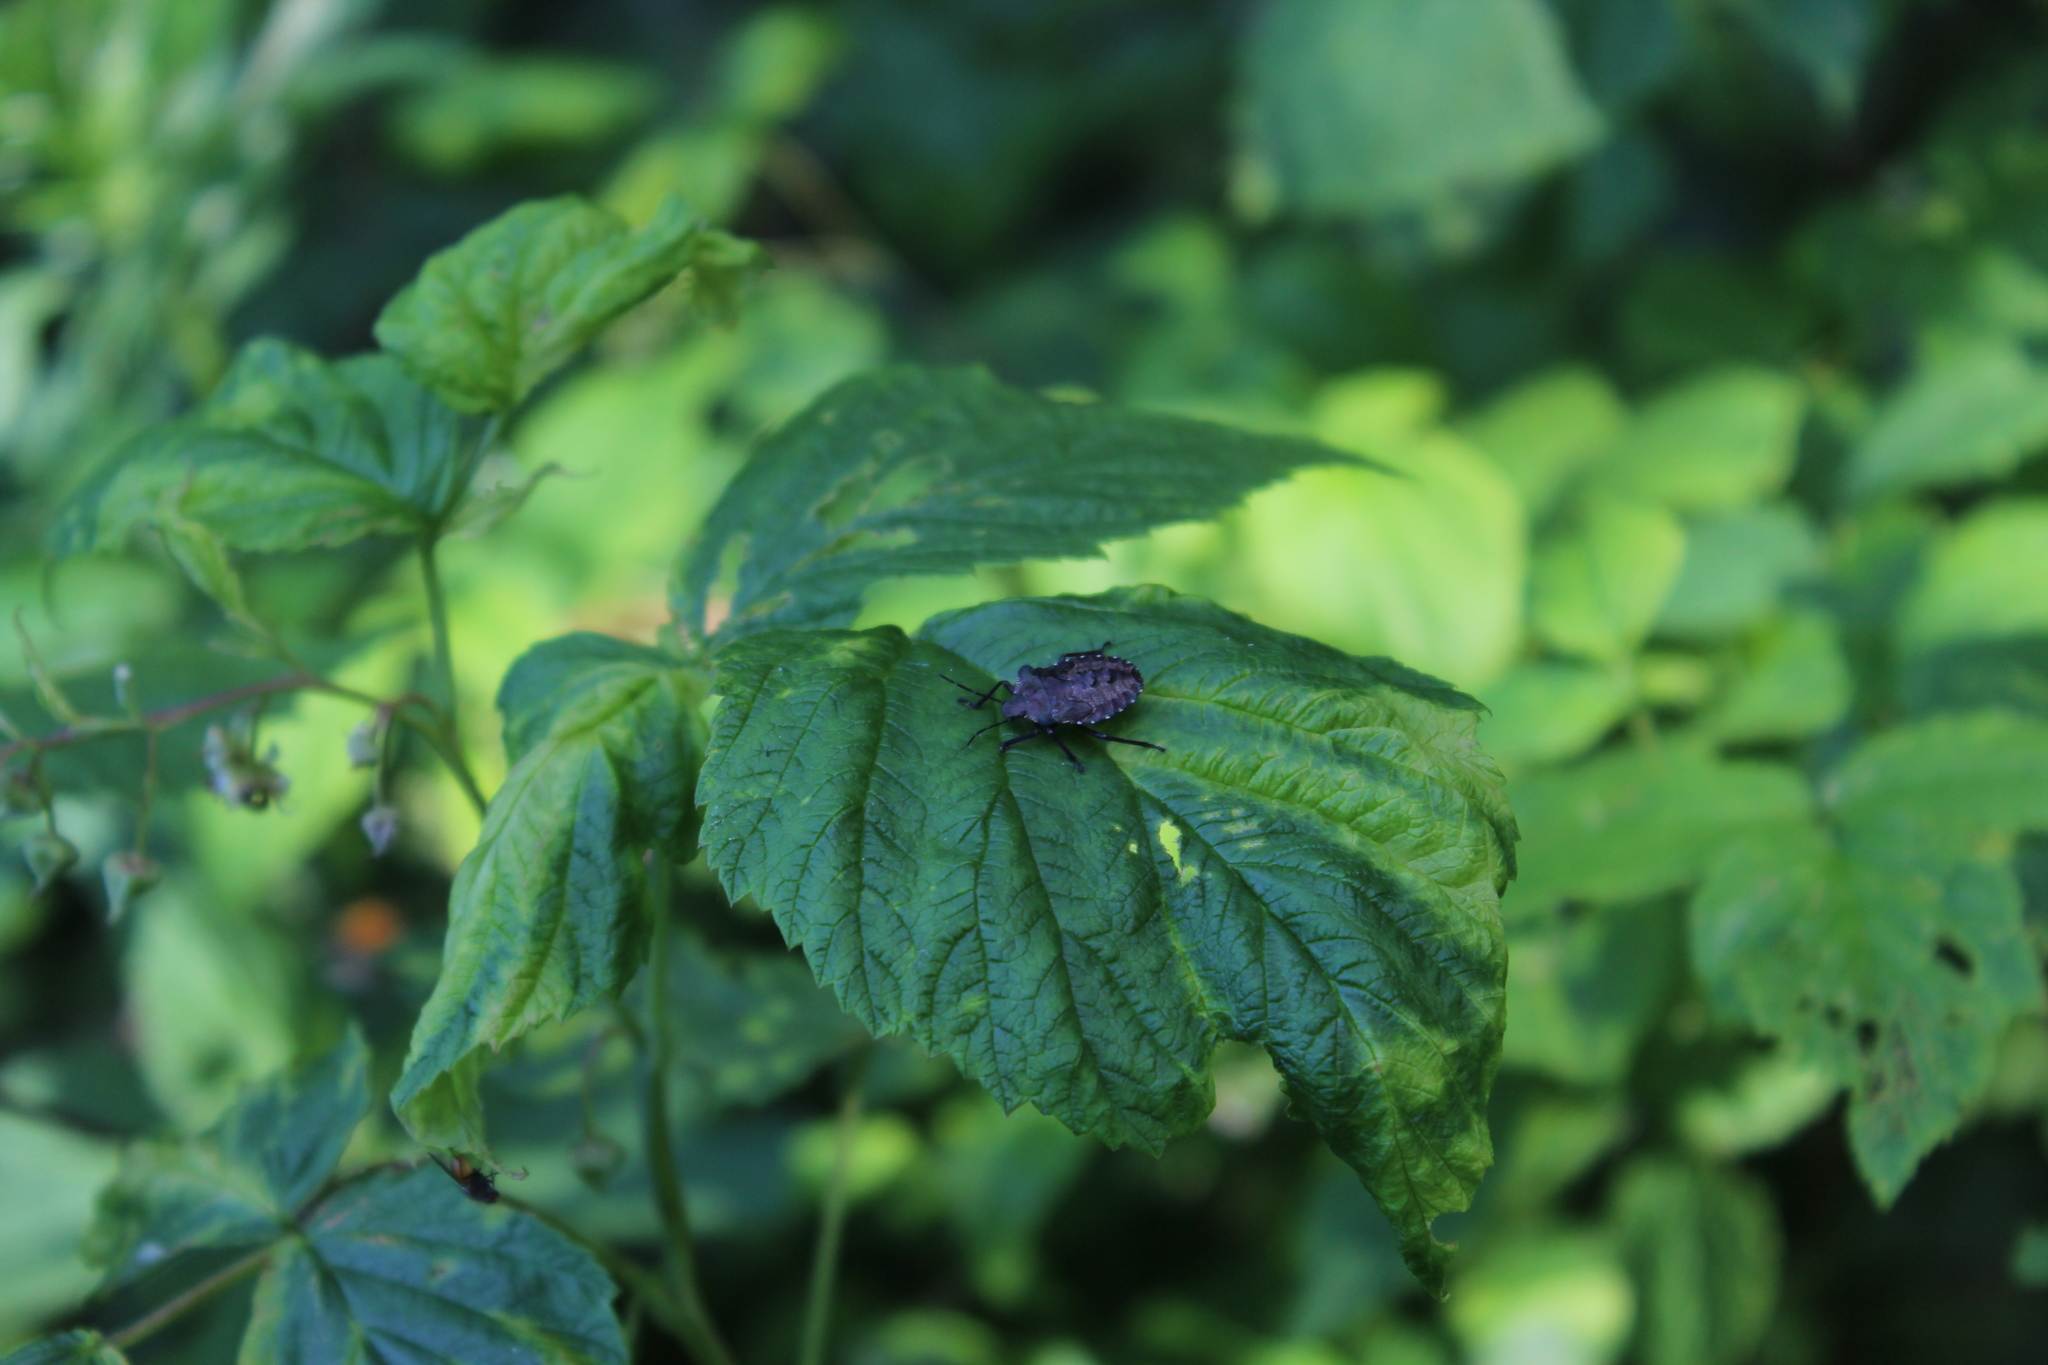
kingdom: Plantae
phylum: Tracheophyta
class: Magnoliopsida
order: Rosales
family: Rosaceae
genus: Rubus
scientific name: Rubus idaeus
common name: Raspberry
